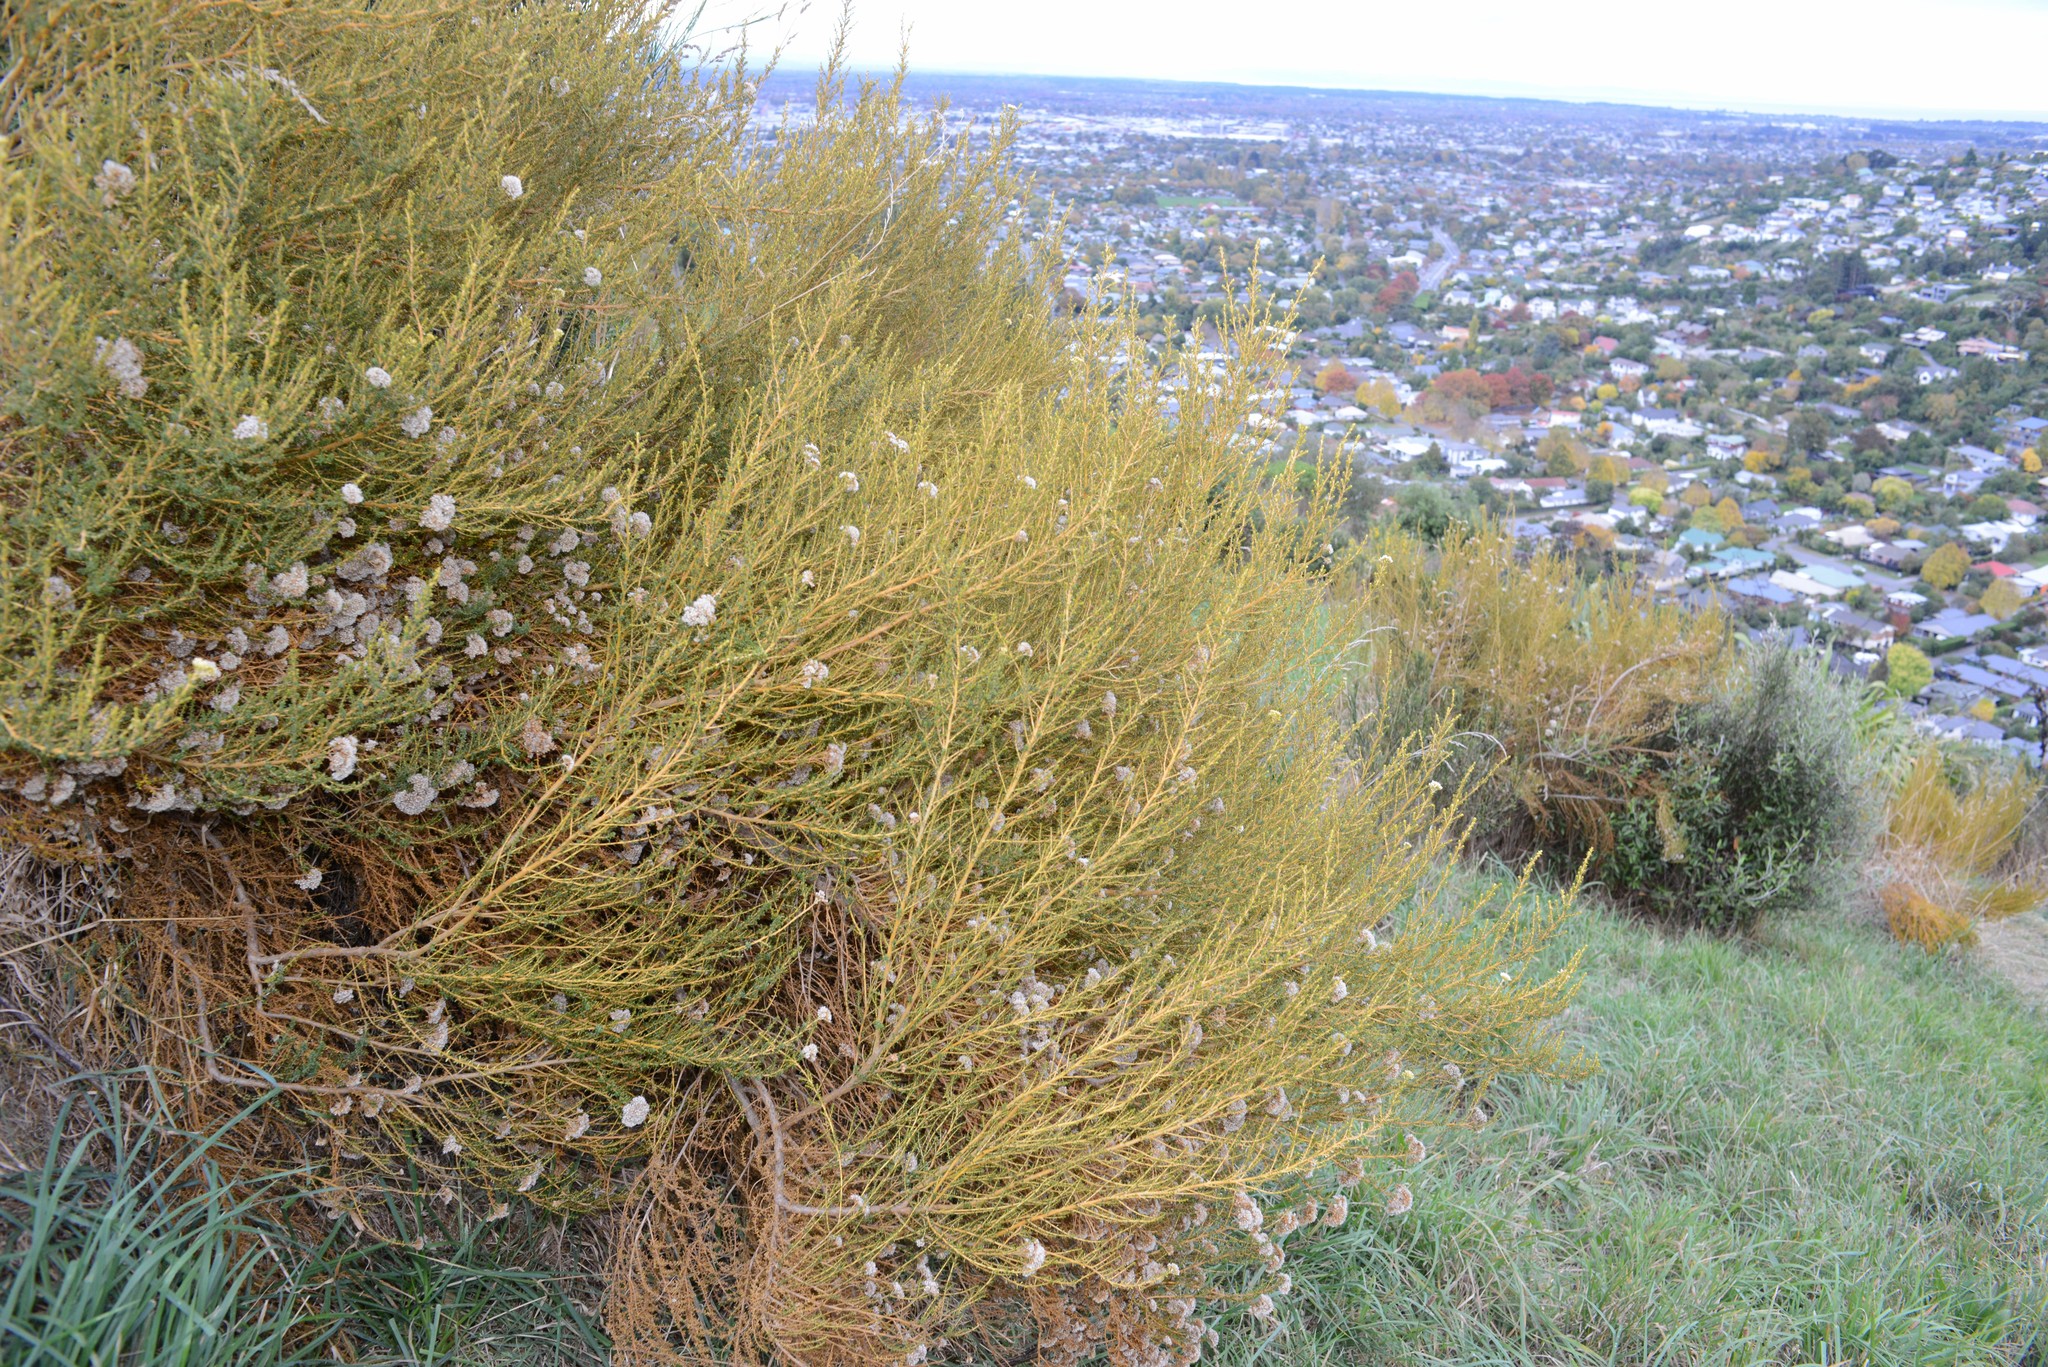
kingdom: Plantae
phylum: Tracheophyta
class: Magnoliopsida
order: Asterales
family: Asteraceae
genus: Ozothamnus
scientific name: Ozothamnus leptophyllus
